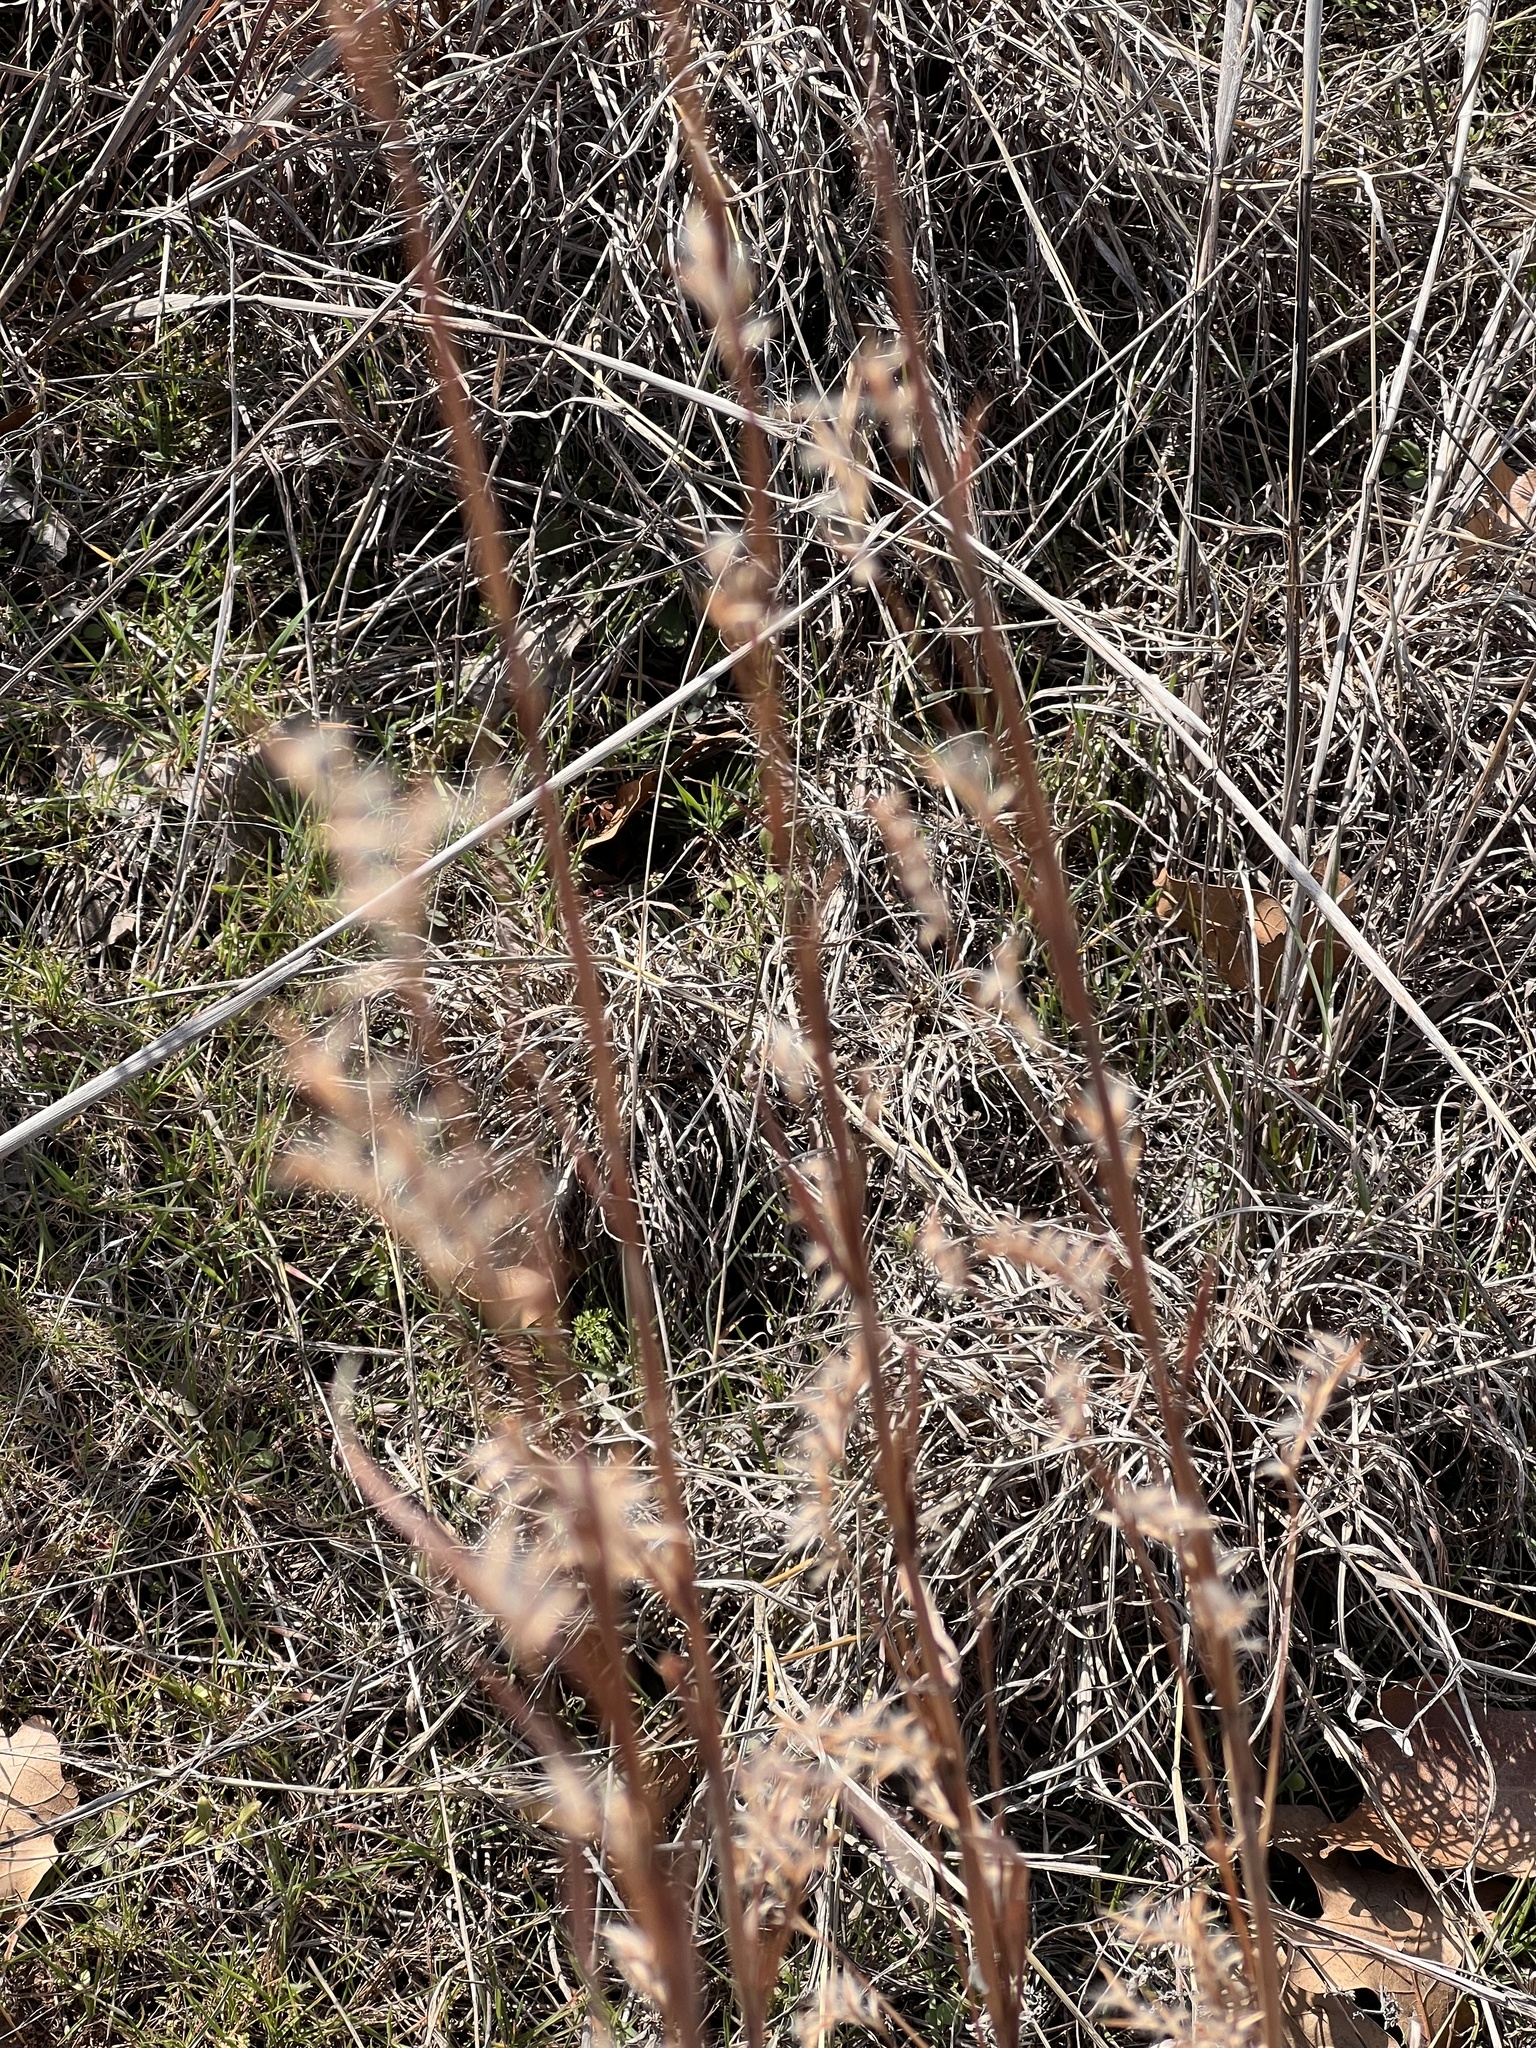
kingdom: Plantae
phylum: Tracheophyta
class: Liliopsida
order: Poales
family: Poaceae
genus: Schizachyrium
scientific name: Schizachyrium scoparium
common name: Little bluestem
